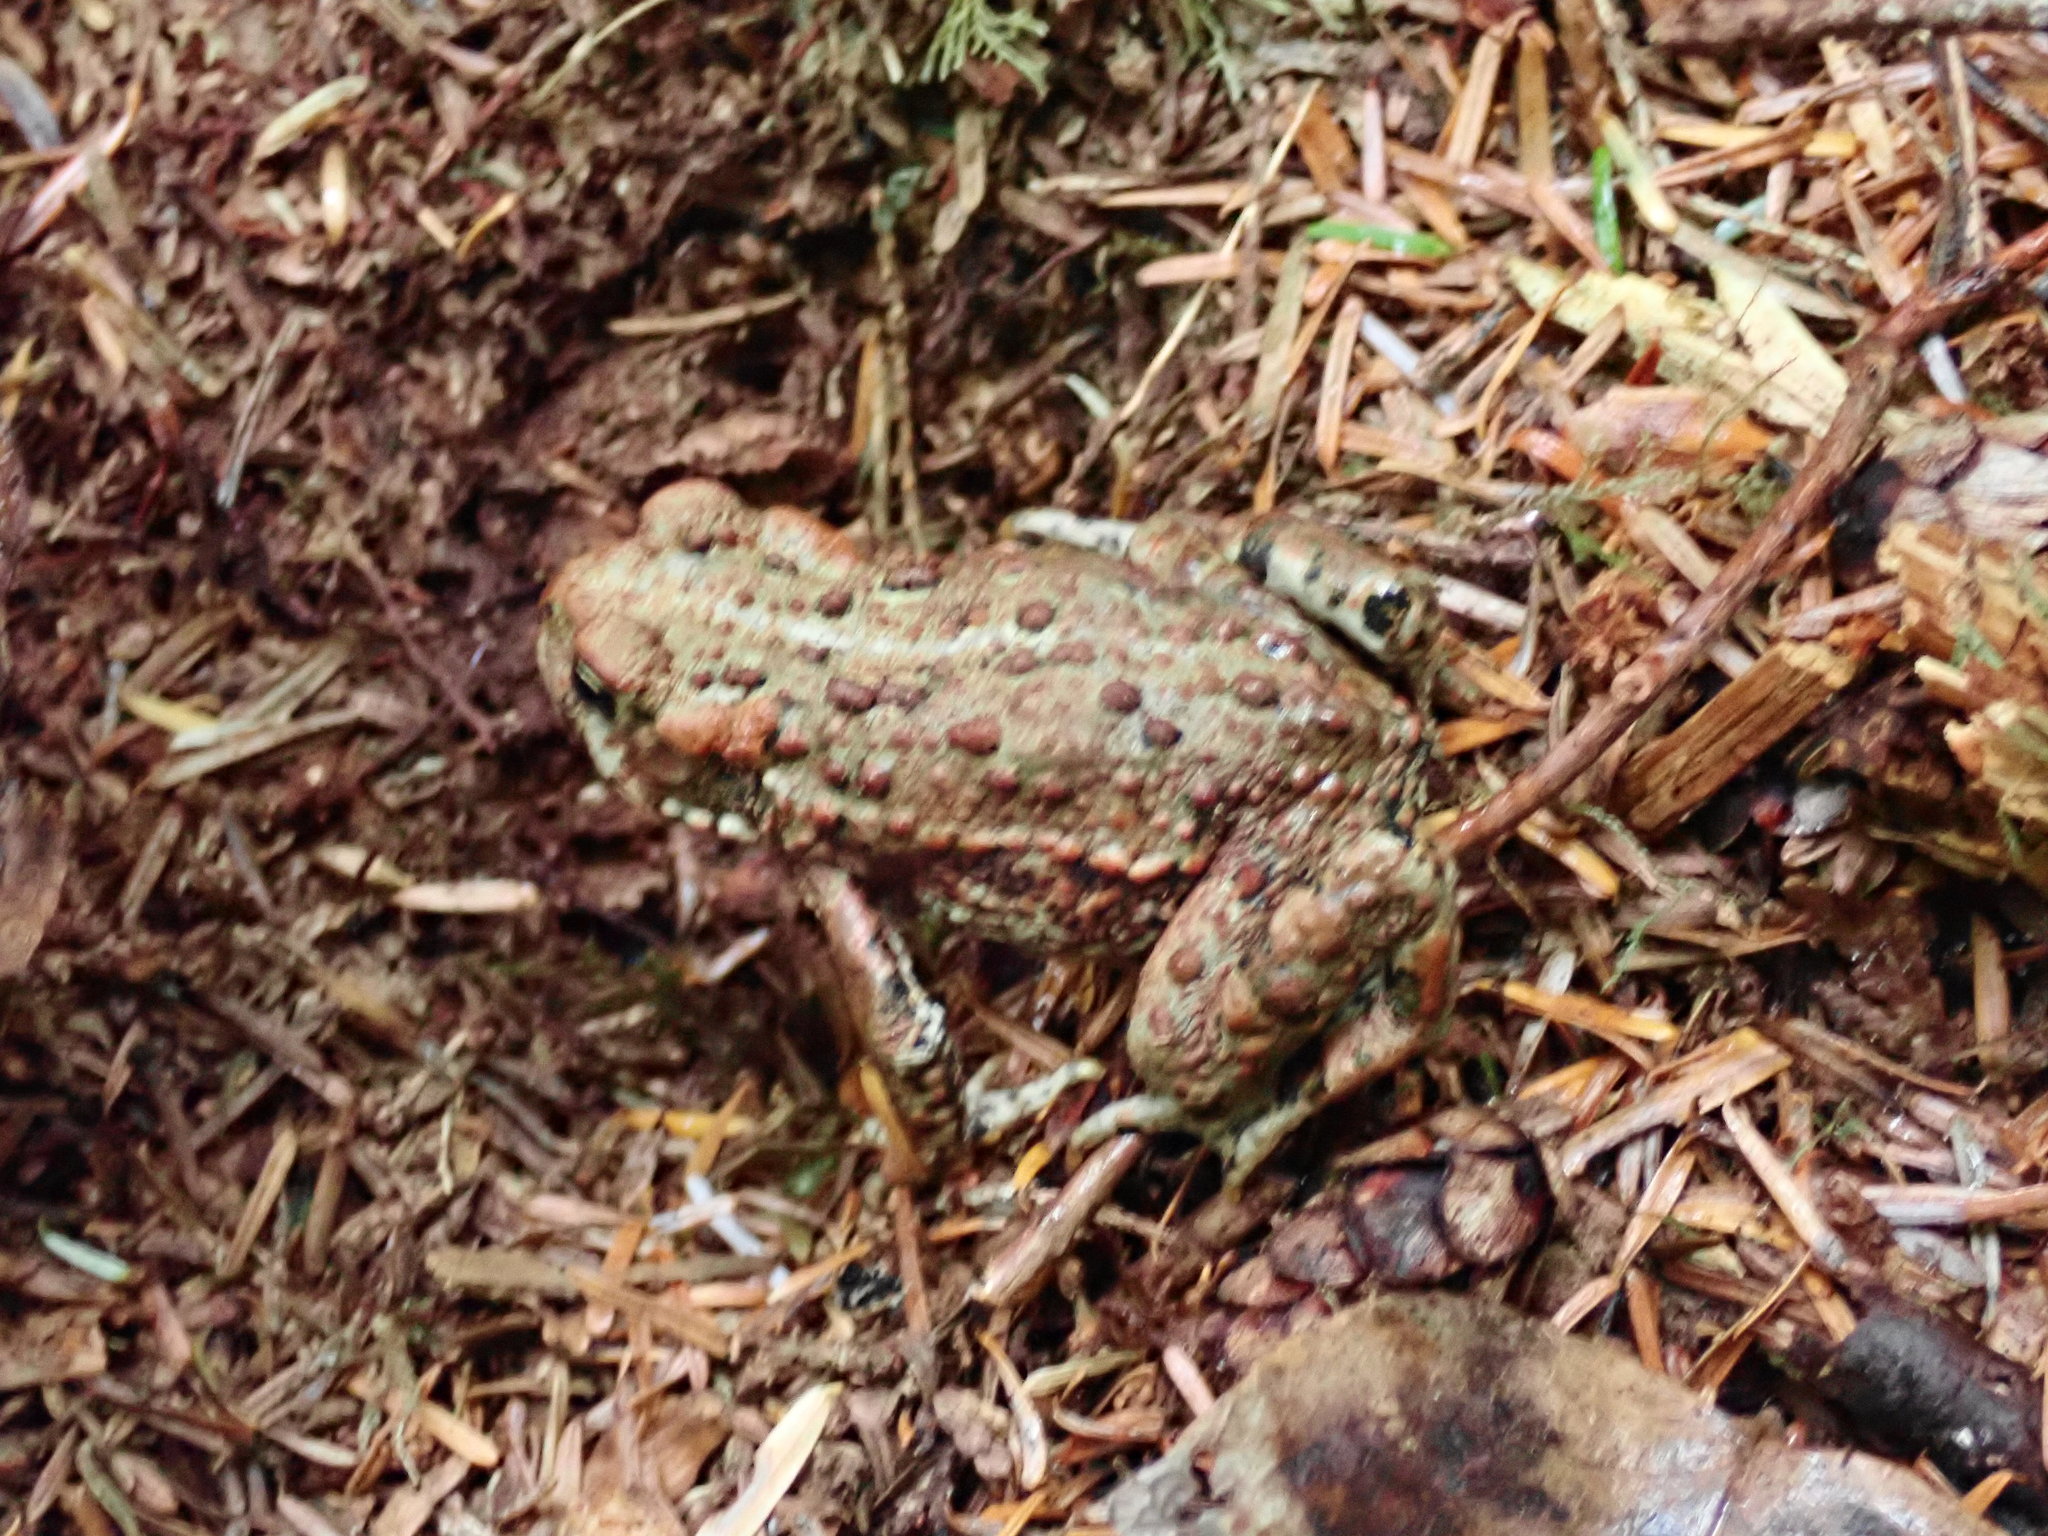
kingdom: Animalia
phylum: Chordata
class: Amphibia
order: Anura
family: Bufonidae
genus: Anaxyrus
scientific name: Anaxyrus boreas
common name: Western toad
